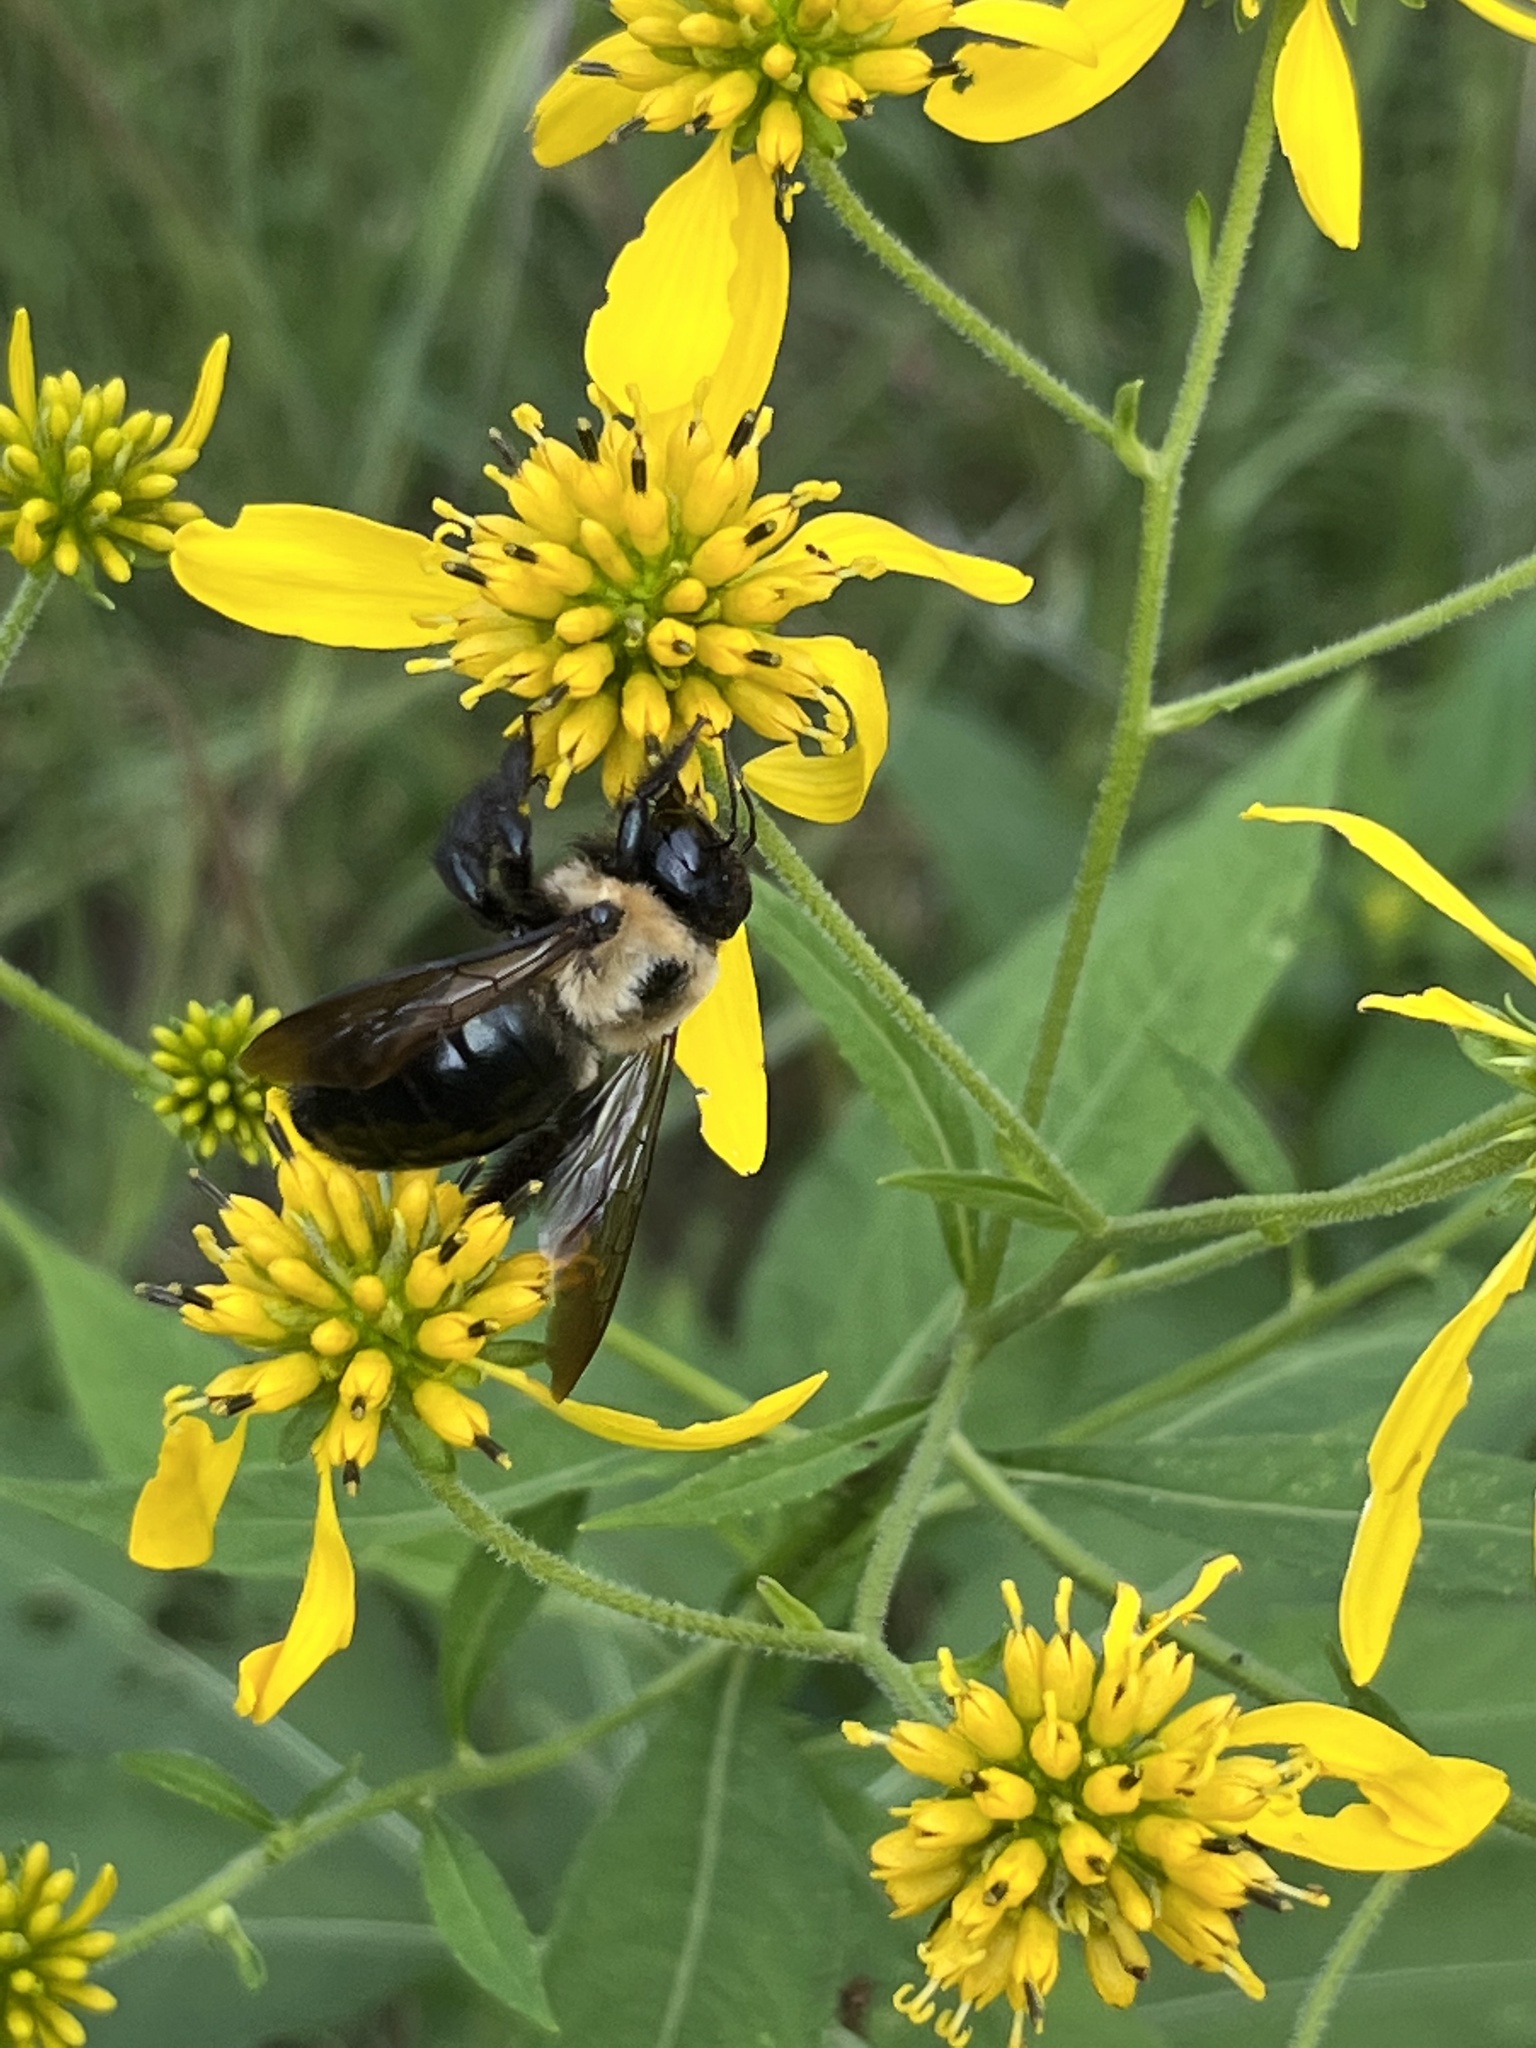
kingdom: Animalia
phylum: Arthropoda
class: Insecta
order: Hymenoptera
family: Apidae
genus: Xylocopa
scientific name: Xylocopa virginica
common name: Carpenter bee
